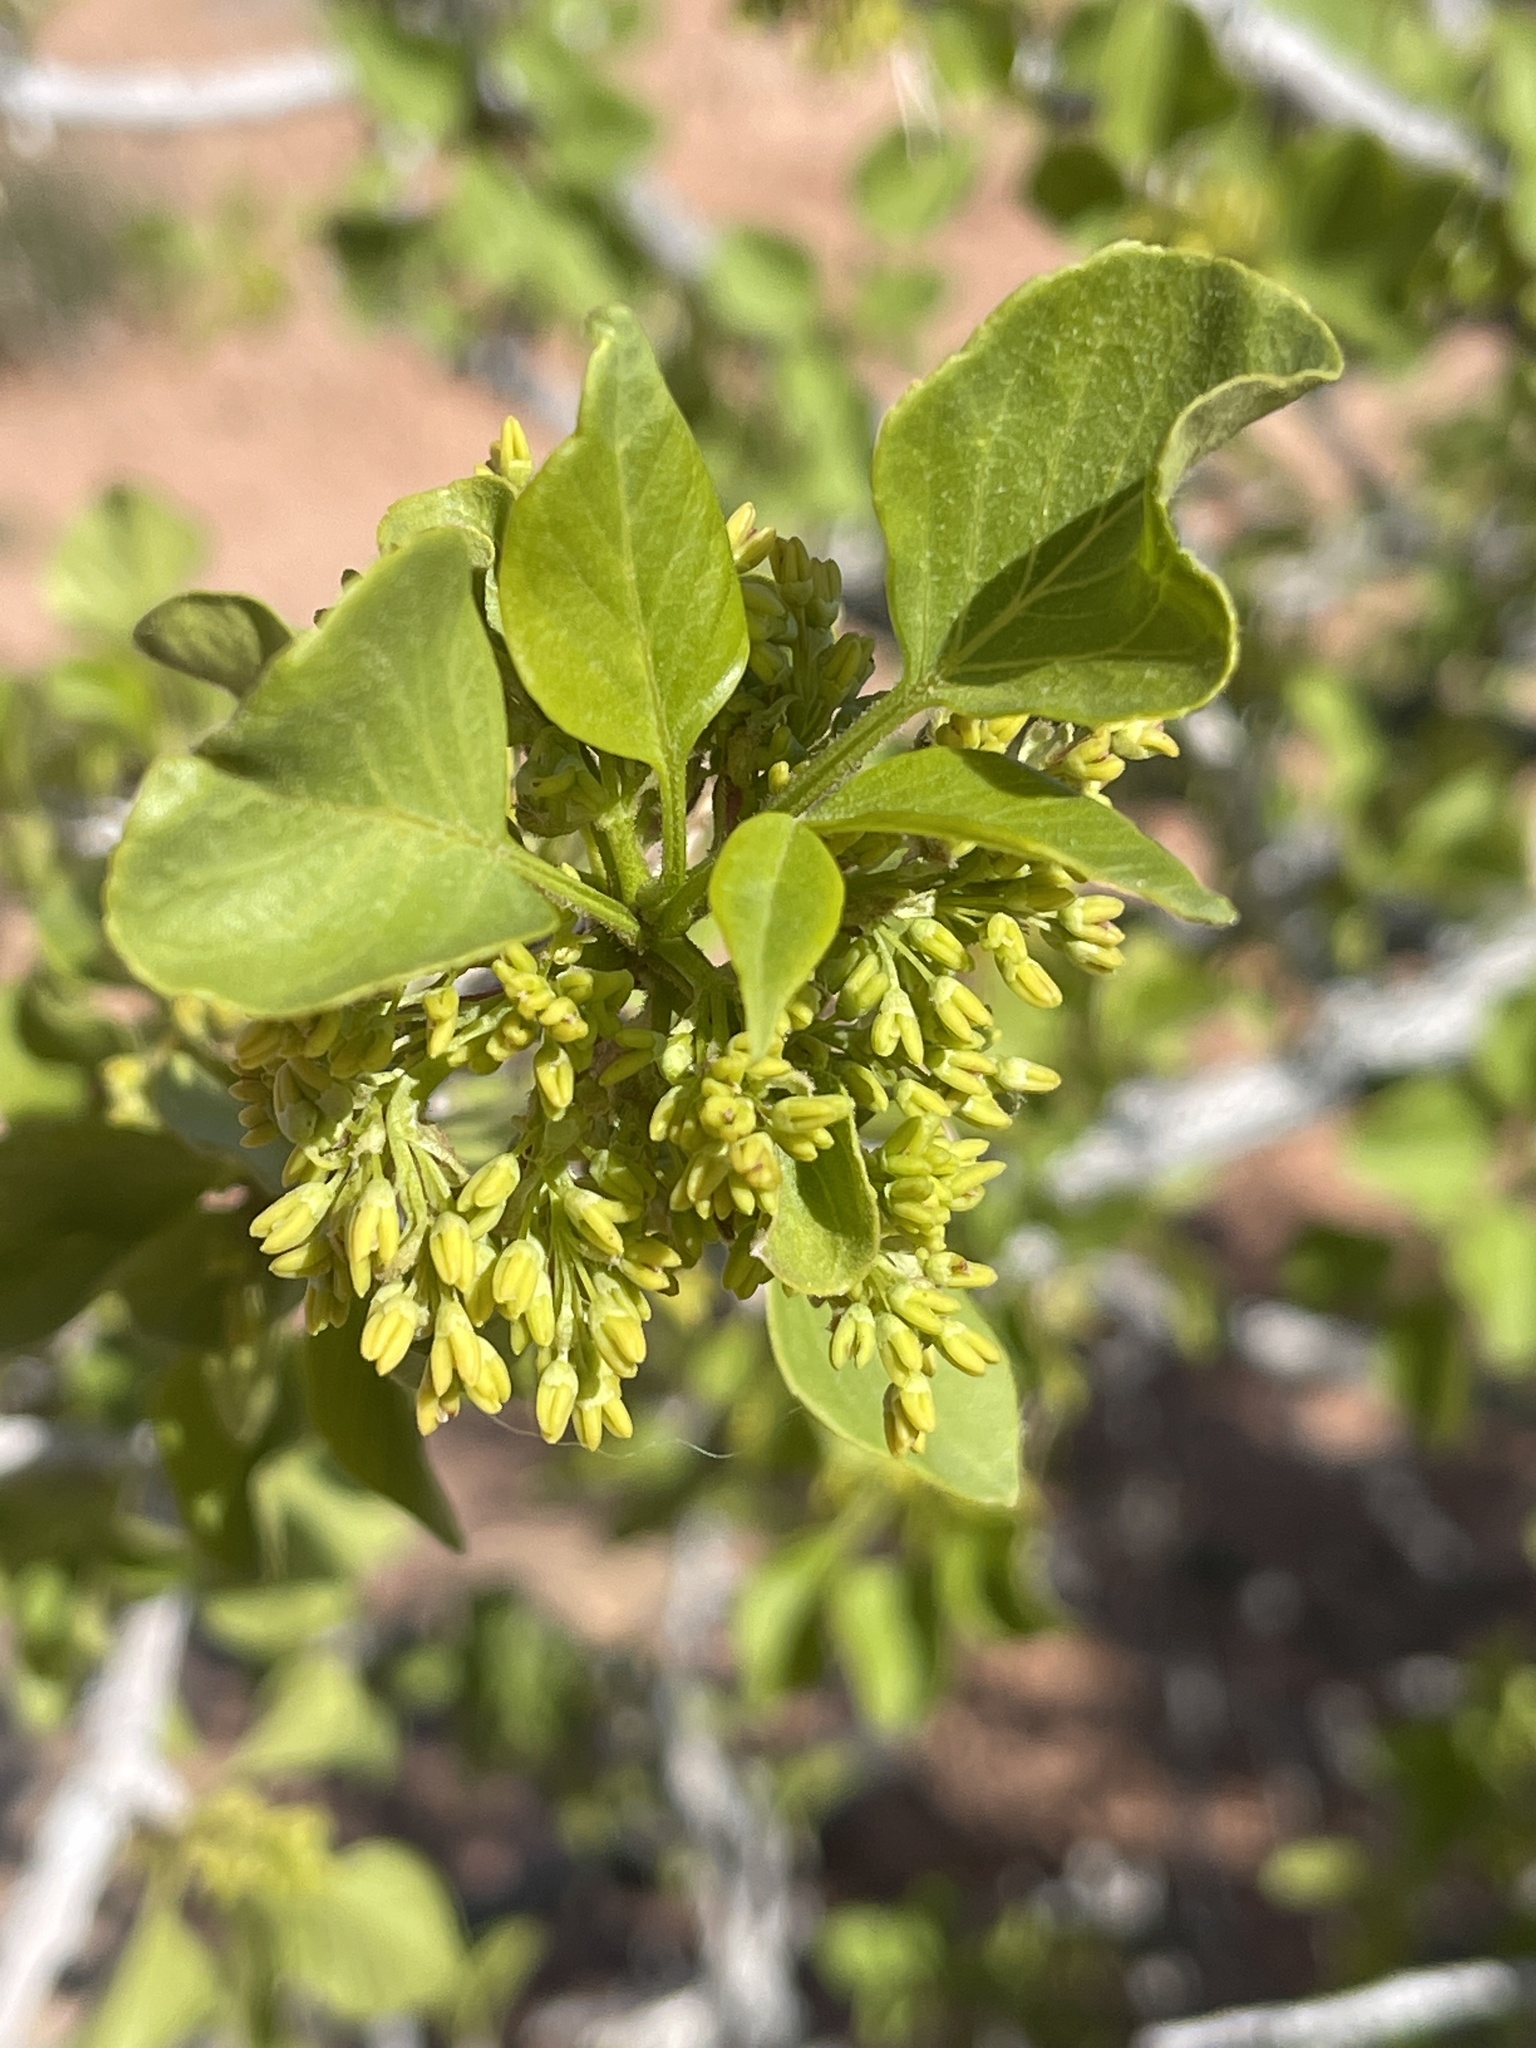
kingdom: Plantae
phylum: Tracheophyta
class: Magnoliopsida
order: Lamiales
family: Oleaceae
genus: Fraxinus
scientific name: Fraxinus anomala
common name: Utah ash
